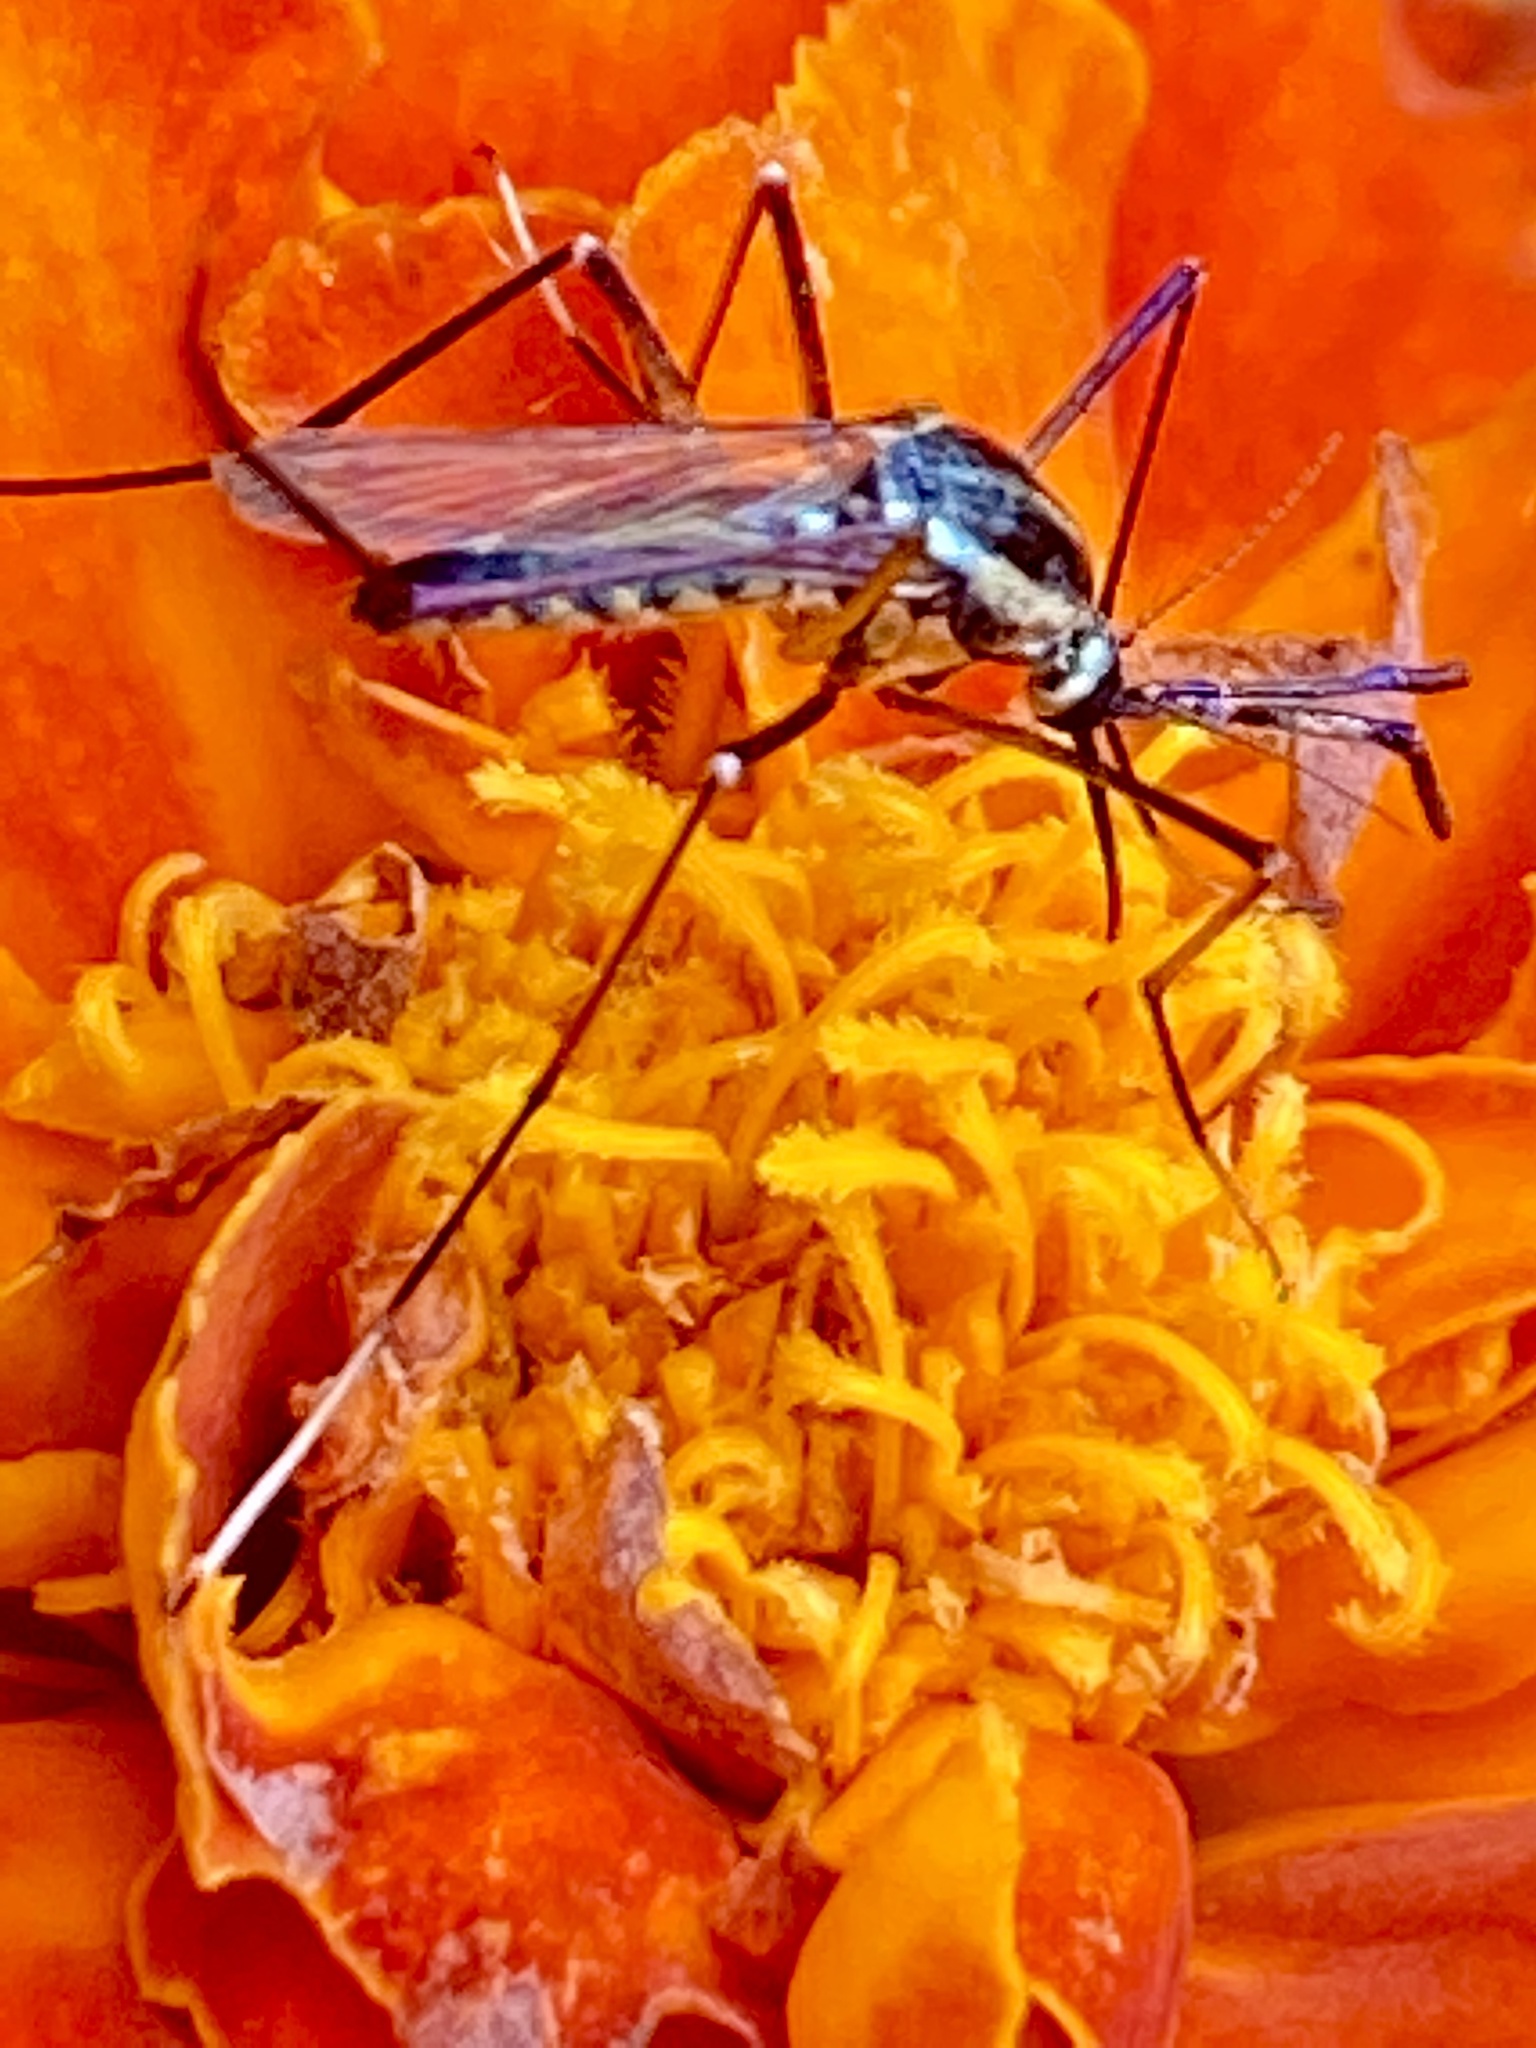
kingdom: Animalia
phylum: Arthropoda
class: Insecta
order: Diptera
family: Culicidae
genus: Toxorhynchites
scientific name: Toxorhynchites rutilus
